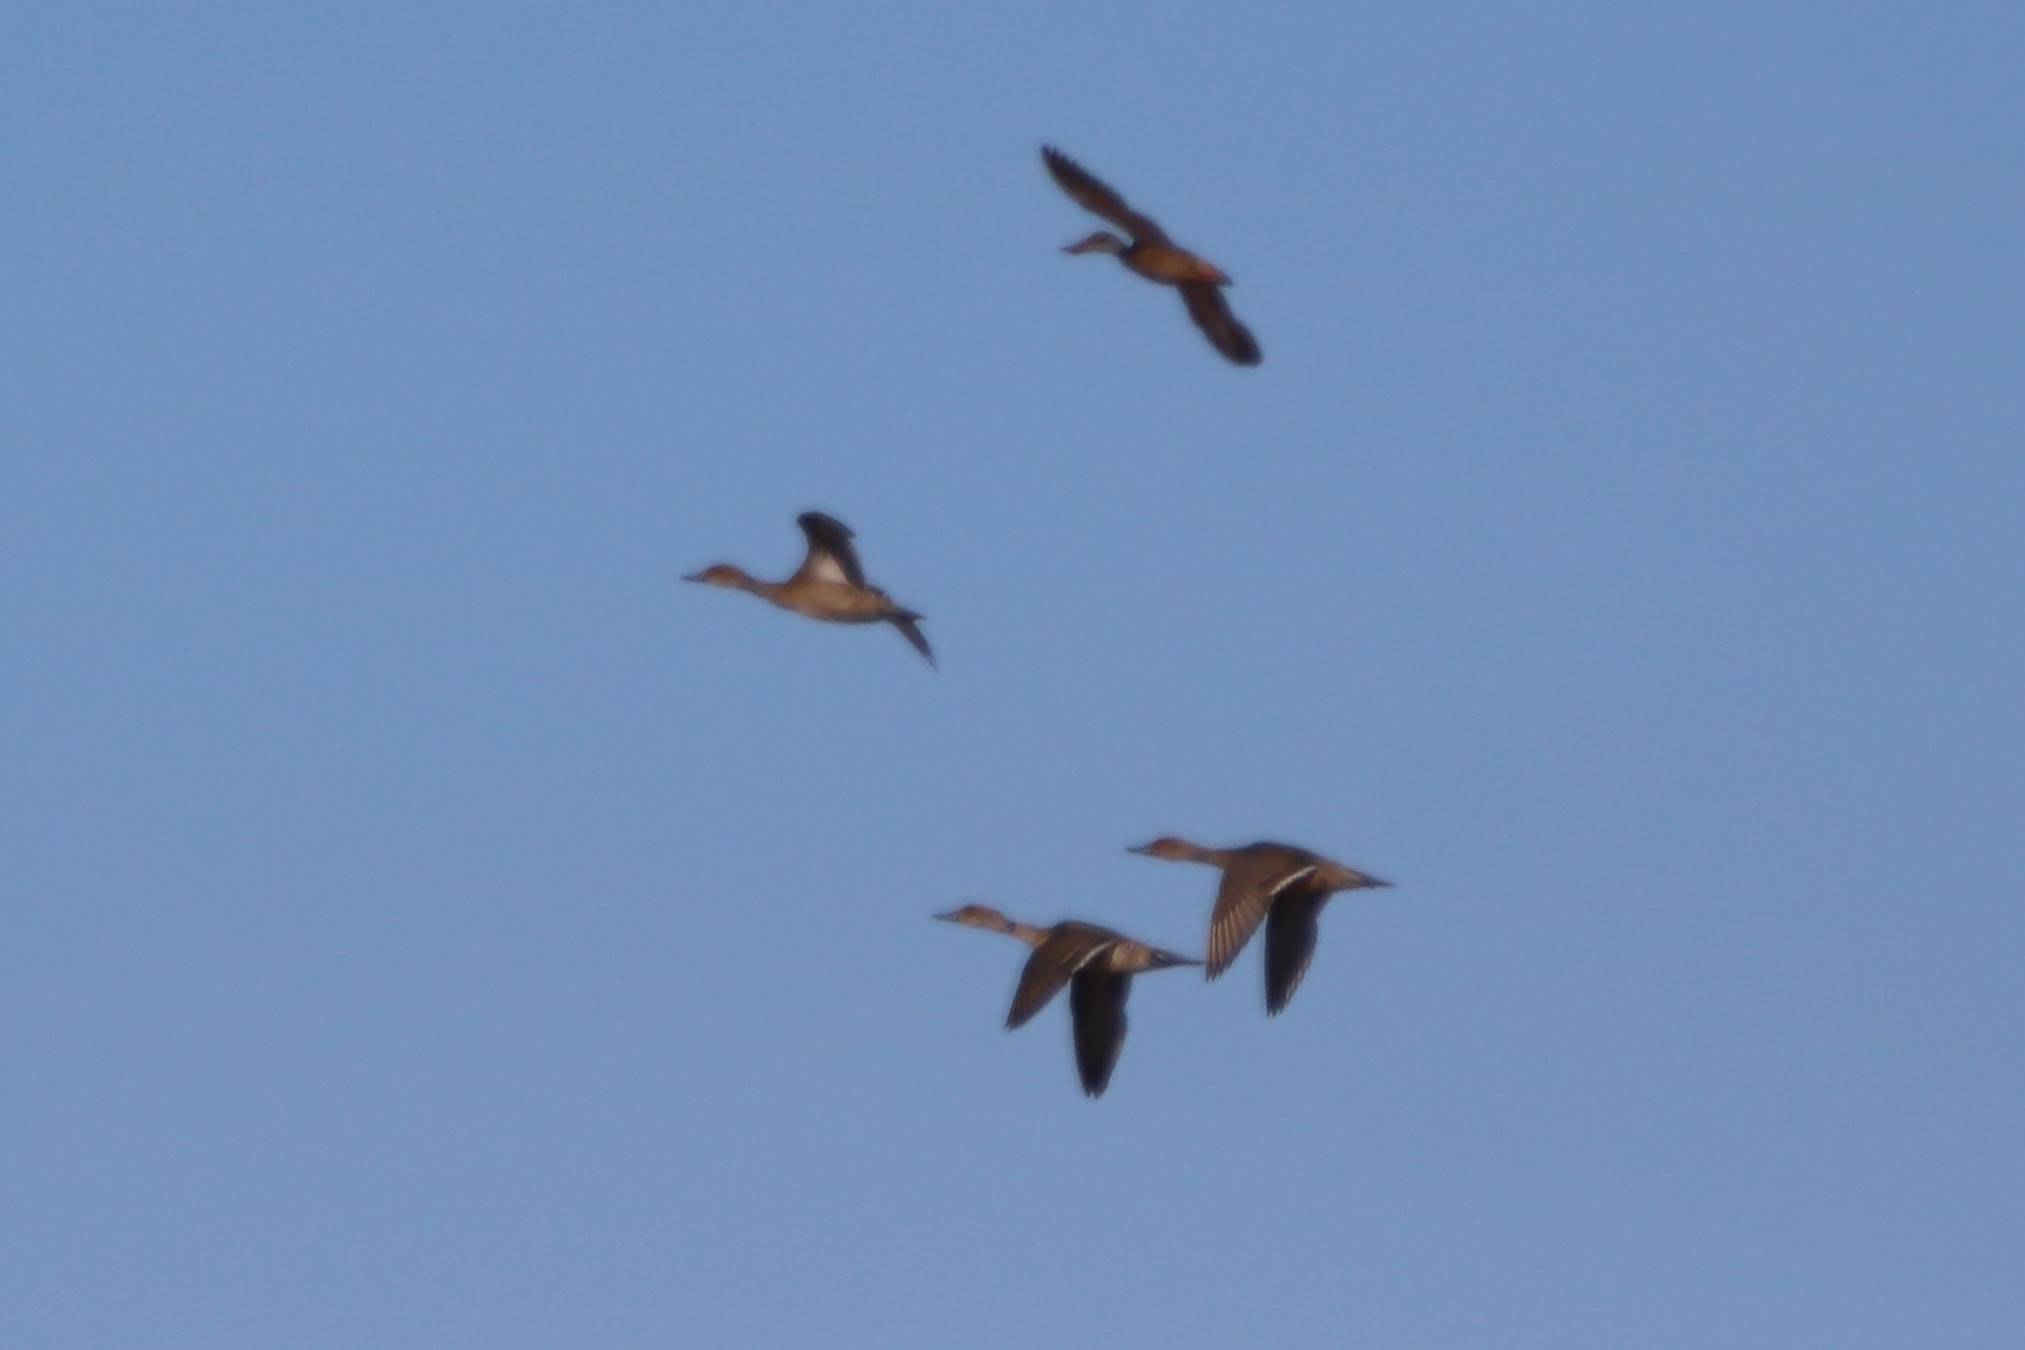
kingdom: Animalia
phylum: Chordata
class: Aves
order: Anseriformes
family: Anatidae
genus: Anas
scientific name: Anas acuta
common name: Northern pintail
